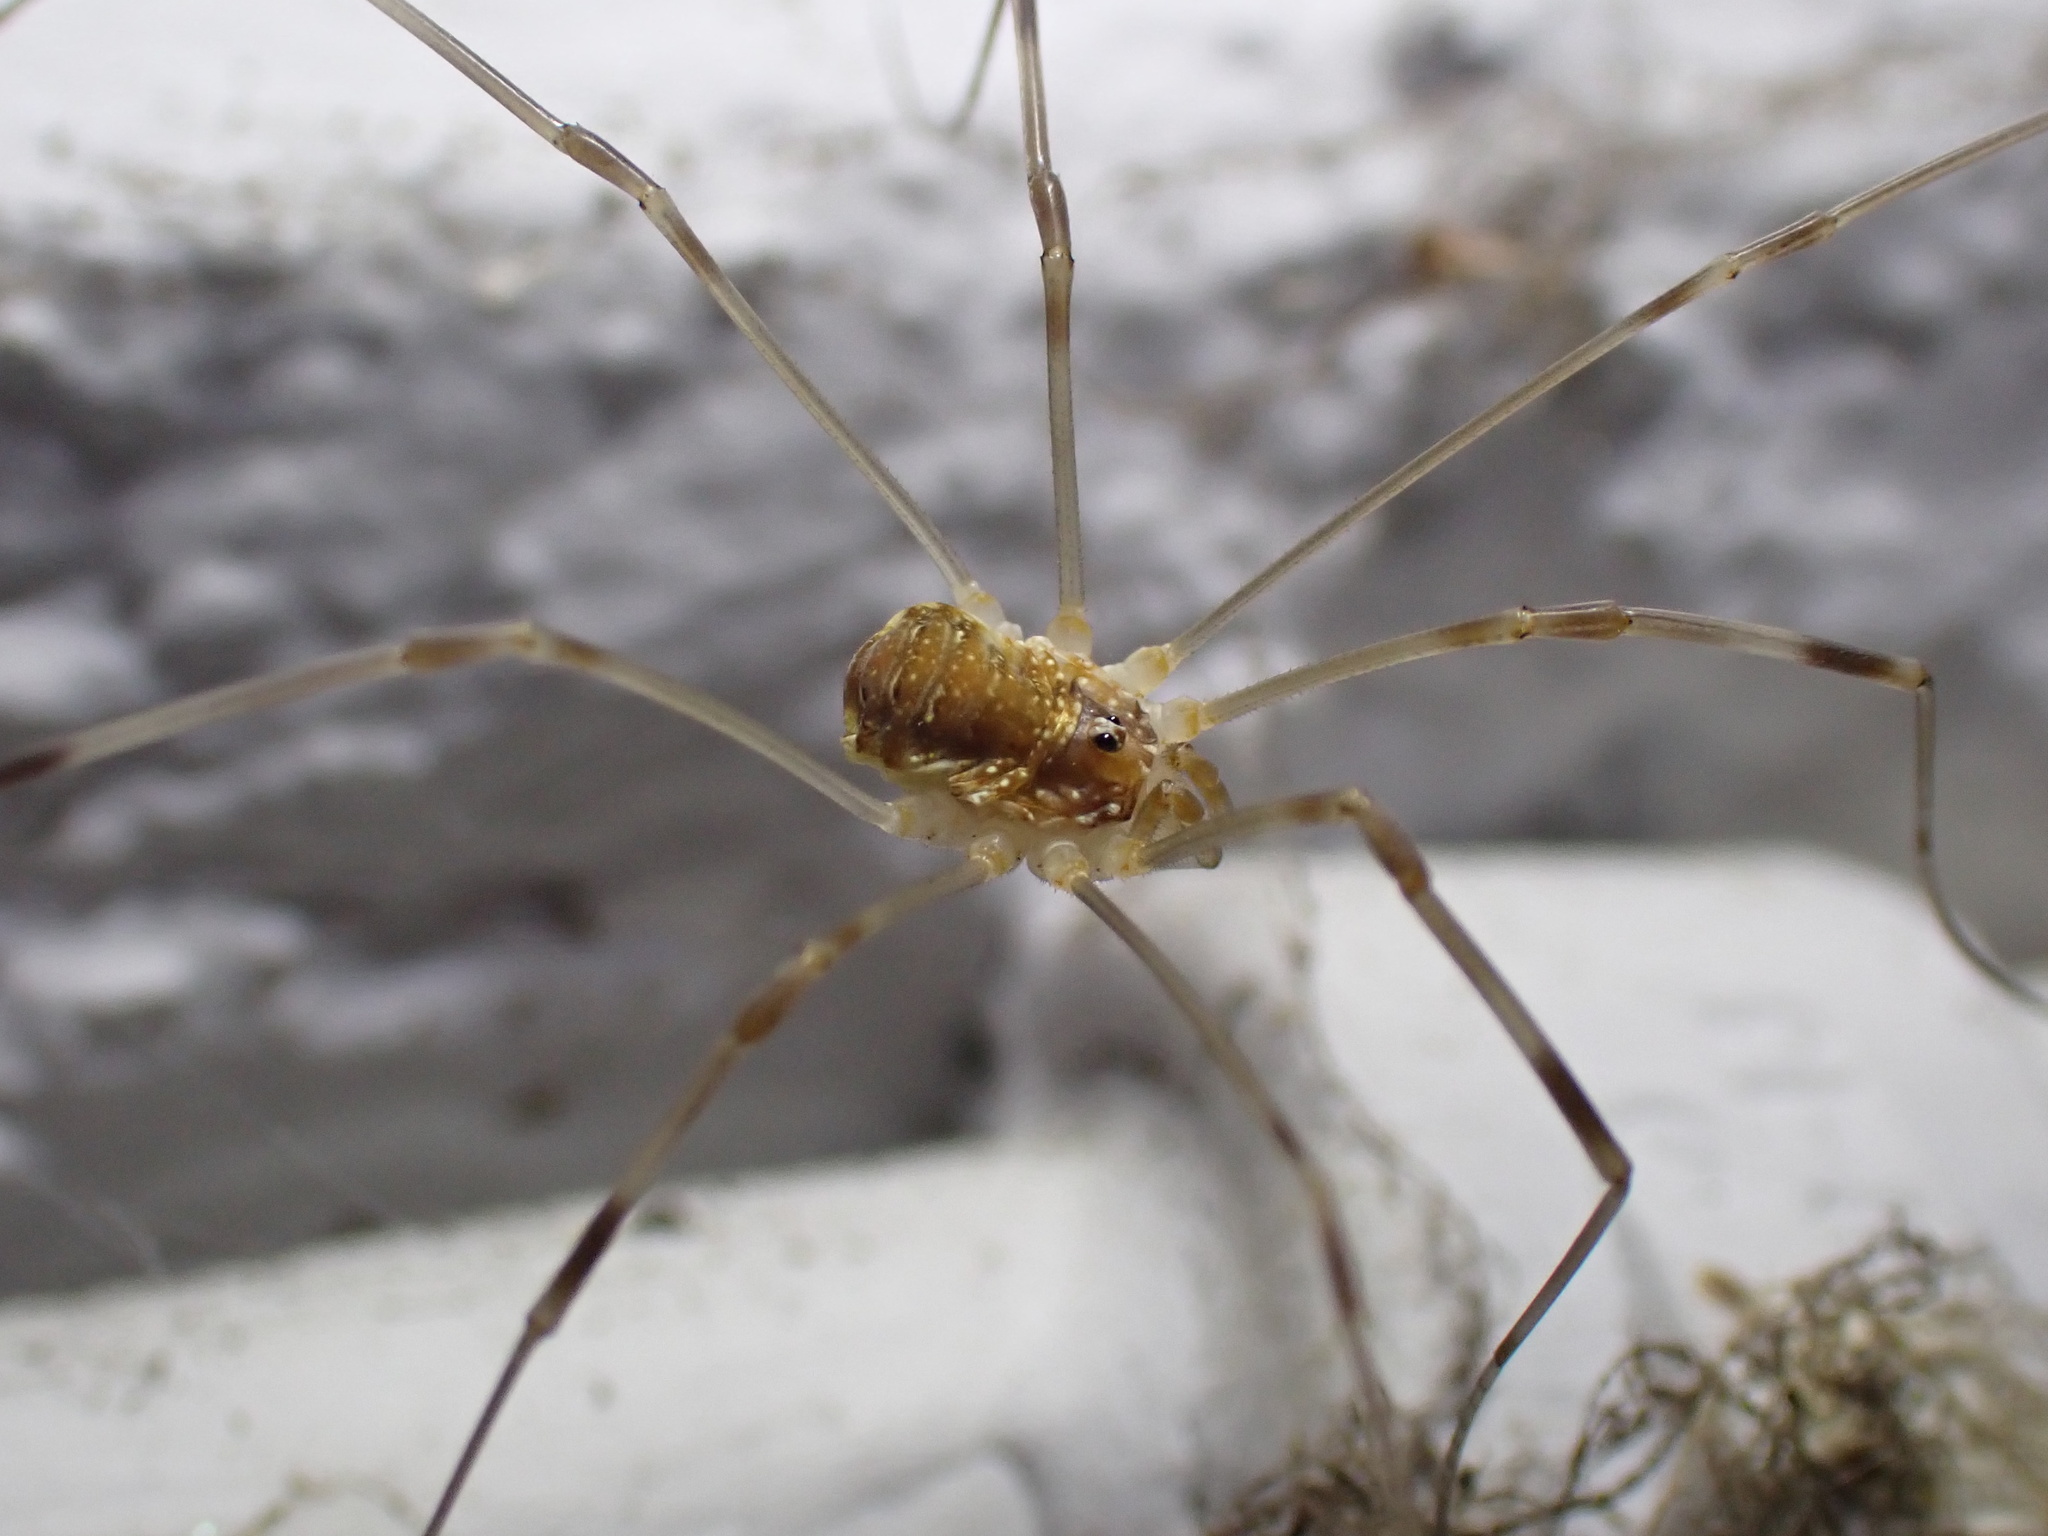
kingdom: Animalia
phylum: Arthropoda
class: Arachnida
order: Opiliones
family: Phalangiidae
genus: Opilio
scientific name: Opilio canestrinii
